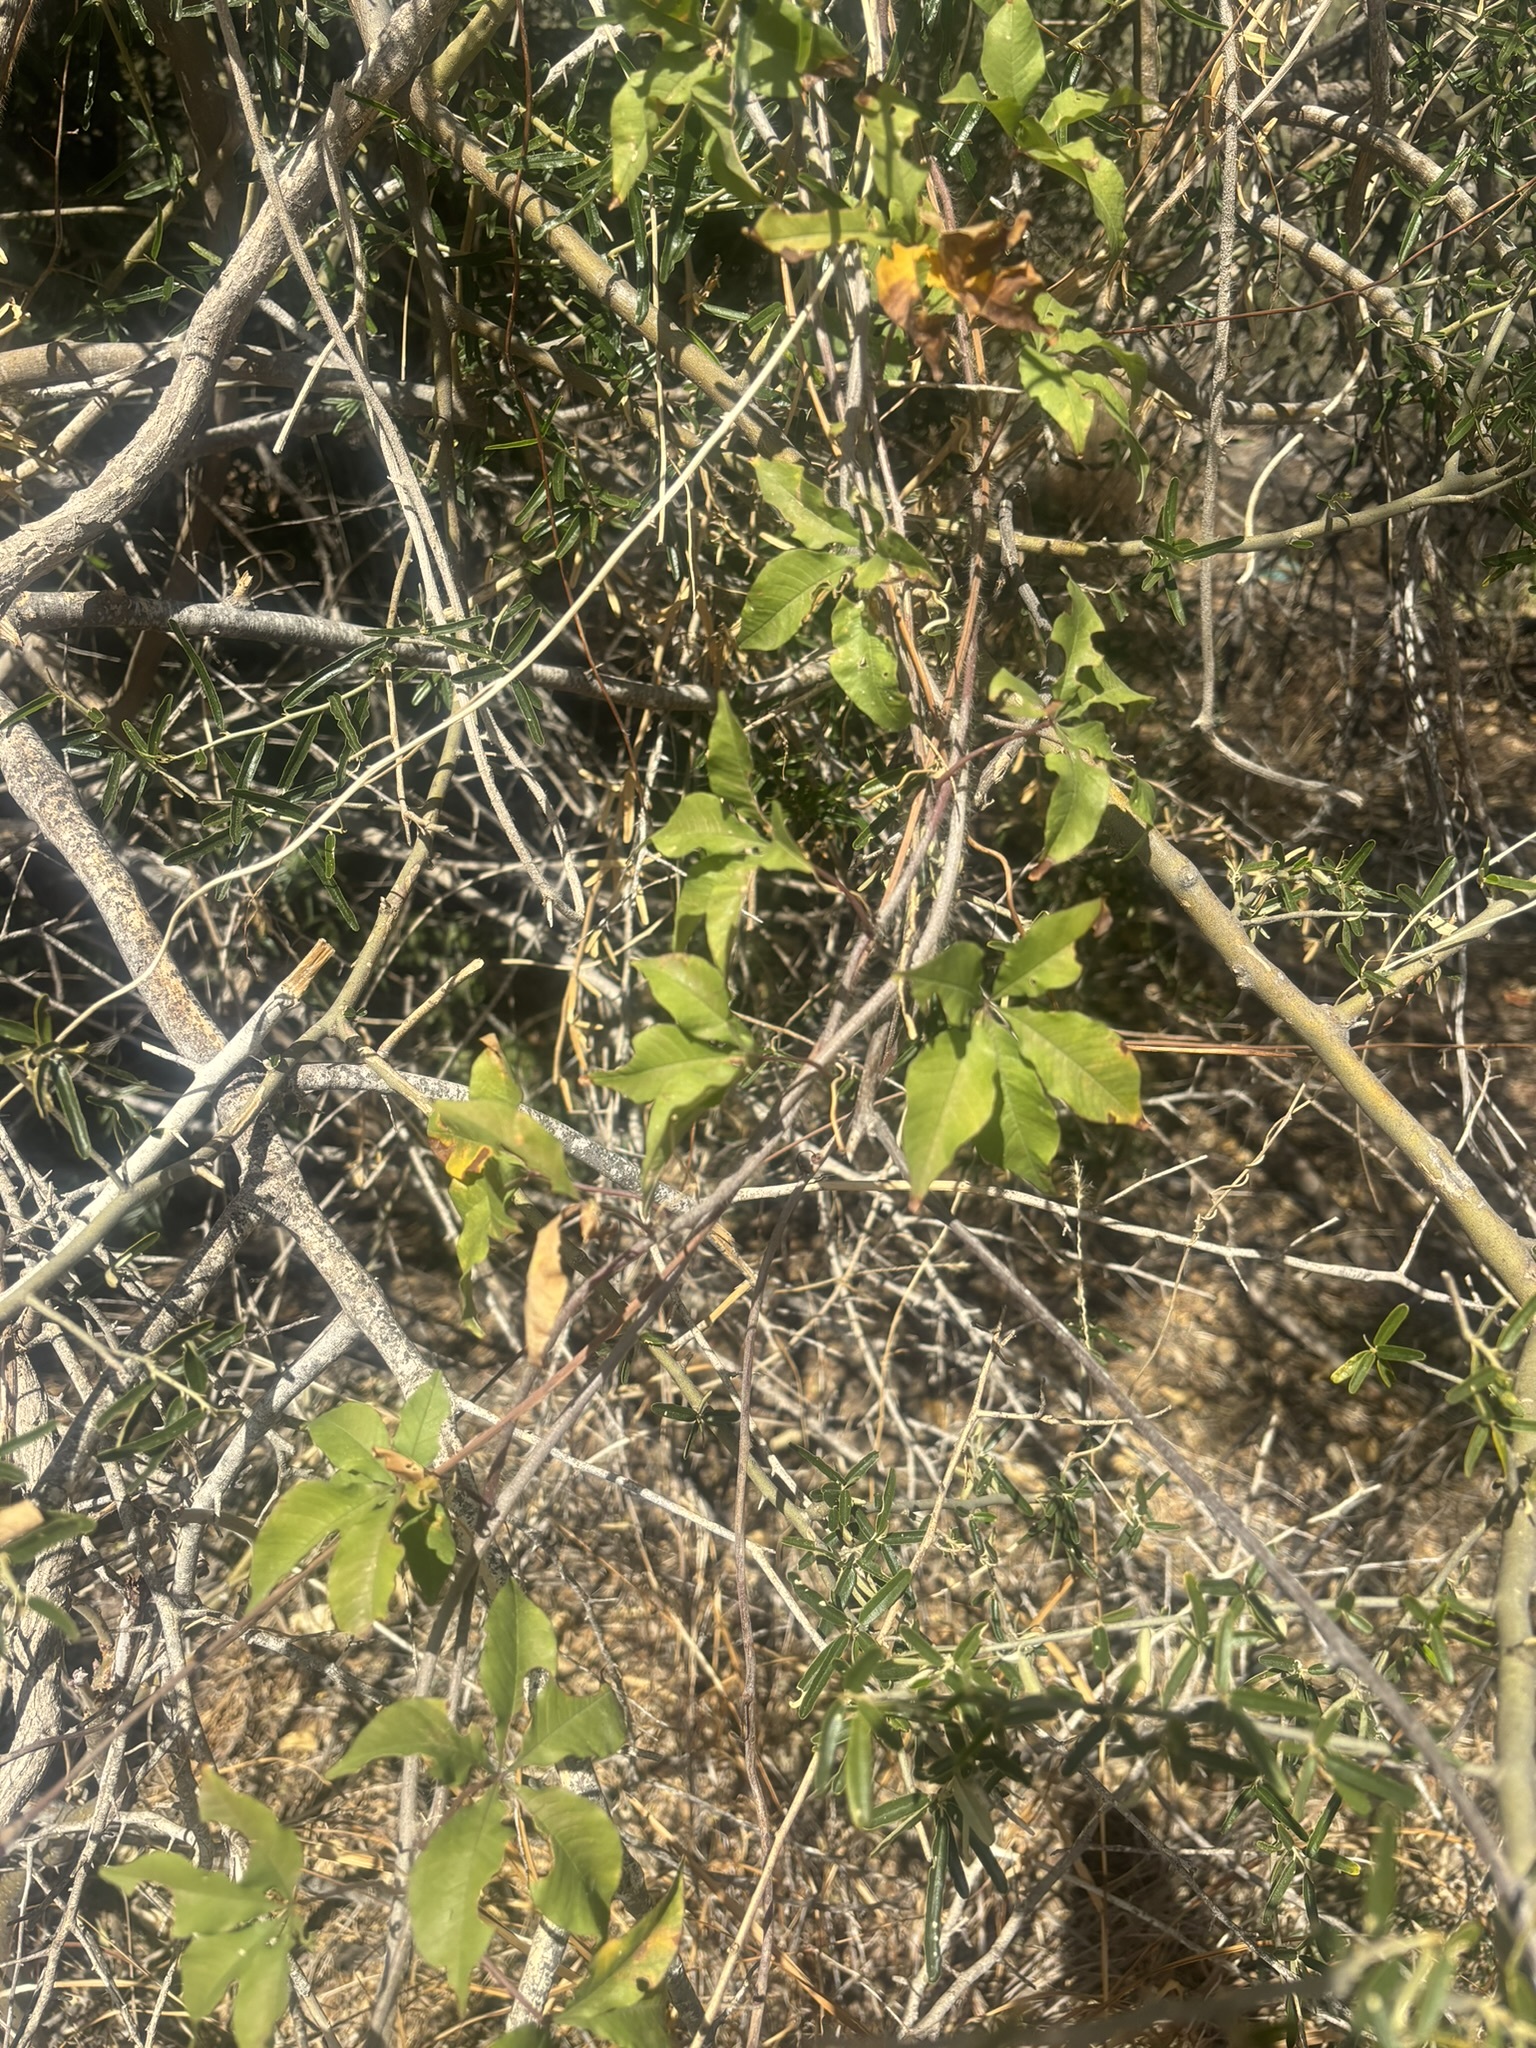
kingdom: Plantae
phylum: Tracheophyta
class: Magnoliopsida
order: Solanales
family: Convolvulaceae
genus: Distimake
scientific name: Distimake aureus
